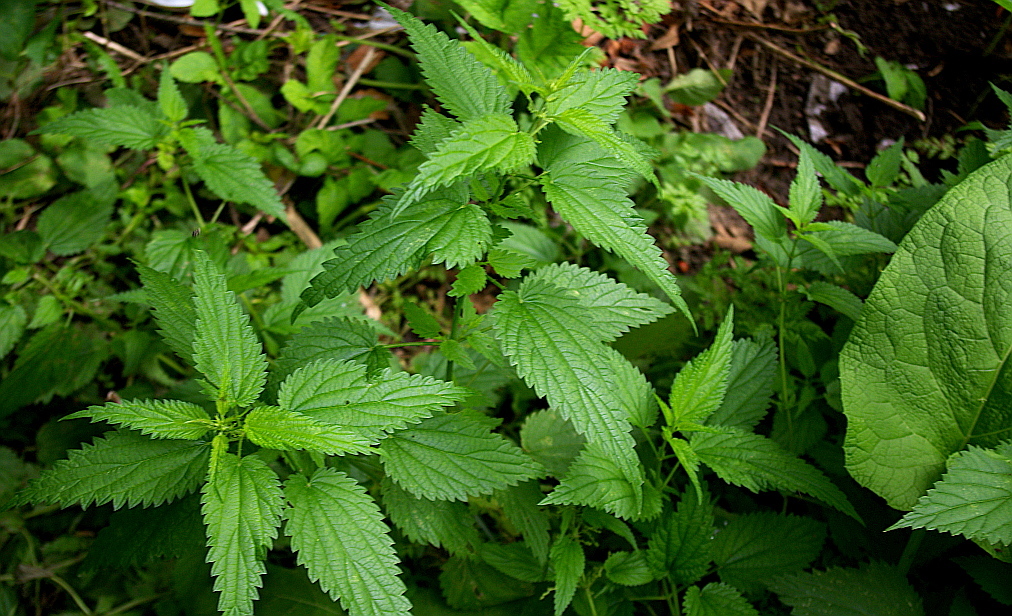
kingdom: Plantae
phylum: Tracheophyta
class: Magnoliopsida
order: Rosales
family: Urticaceae
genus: Urtica
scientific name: Urtica dioica
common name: Common nettle
